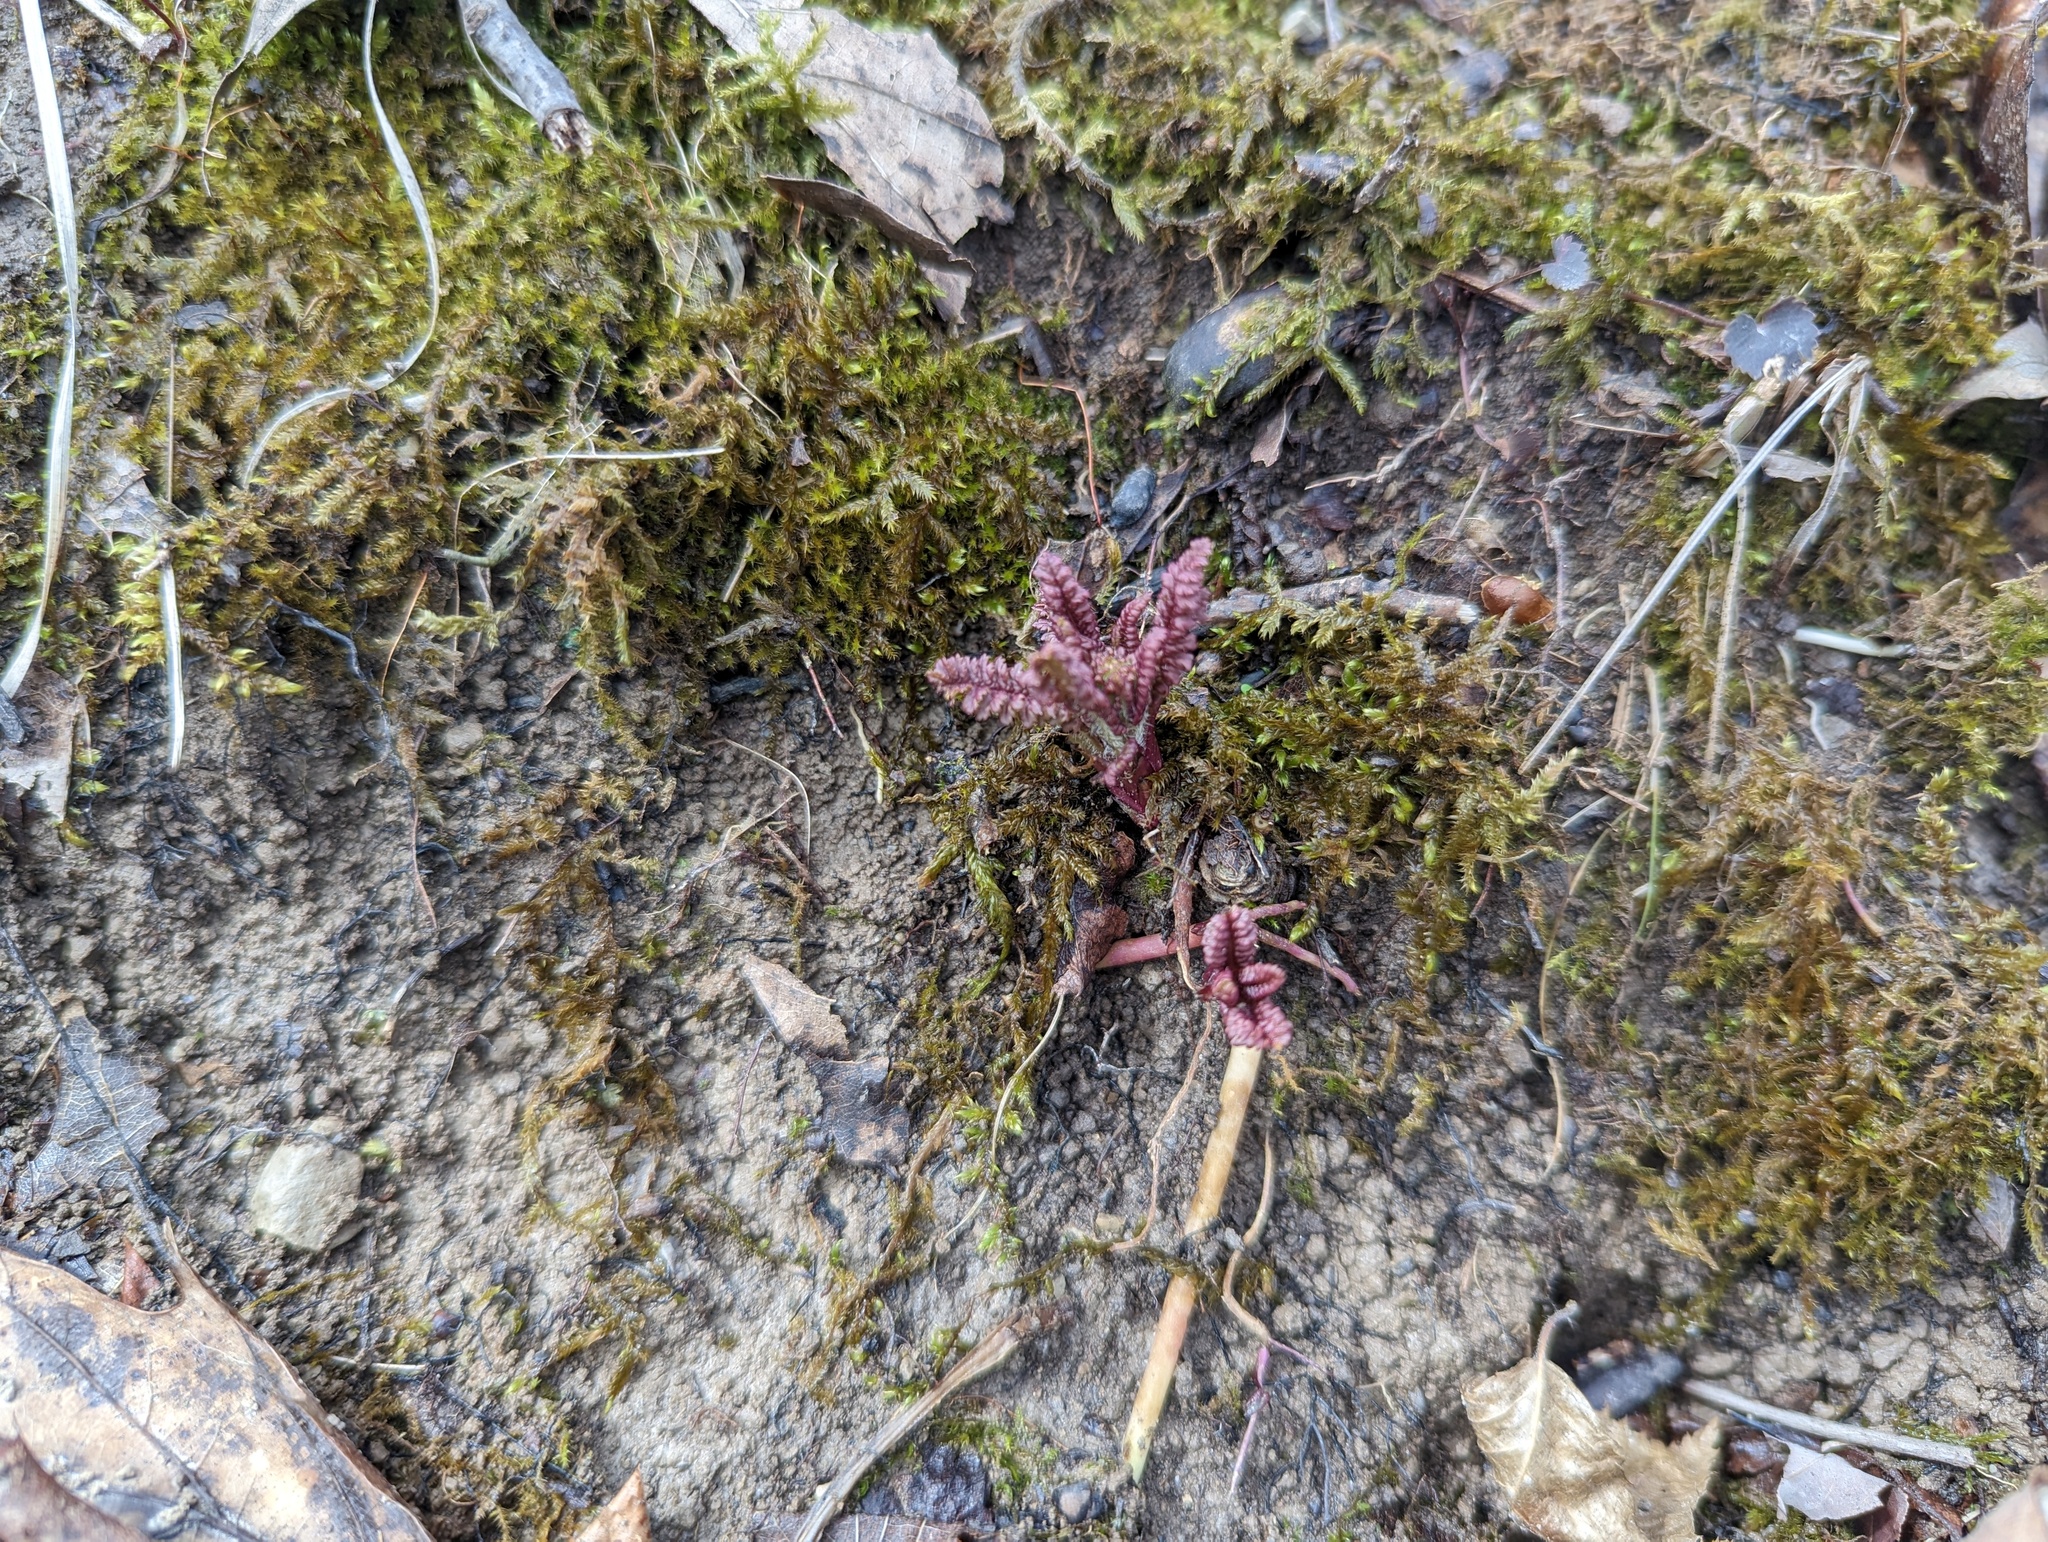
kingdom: Plantae
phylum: Tracheophyta
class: Magnoliopsida
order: Lamiales
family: Orobanchaceae
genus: Pedicularis
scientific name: Pedicularis canadensis
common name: Early lousewort
